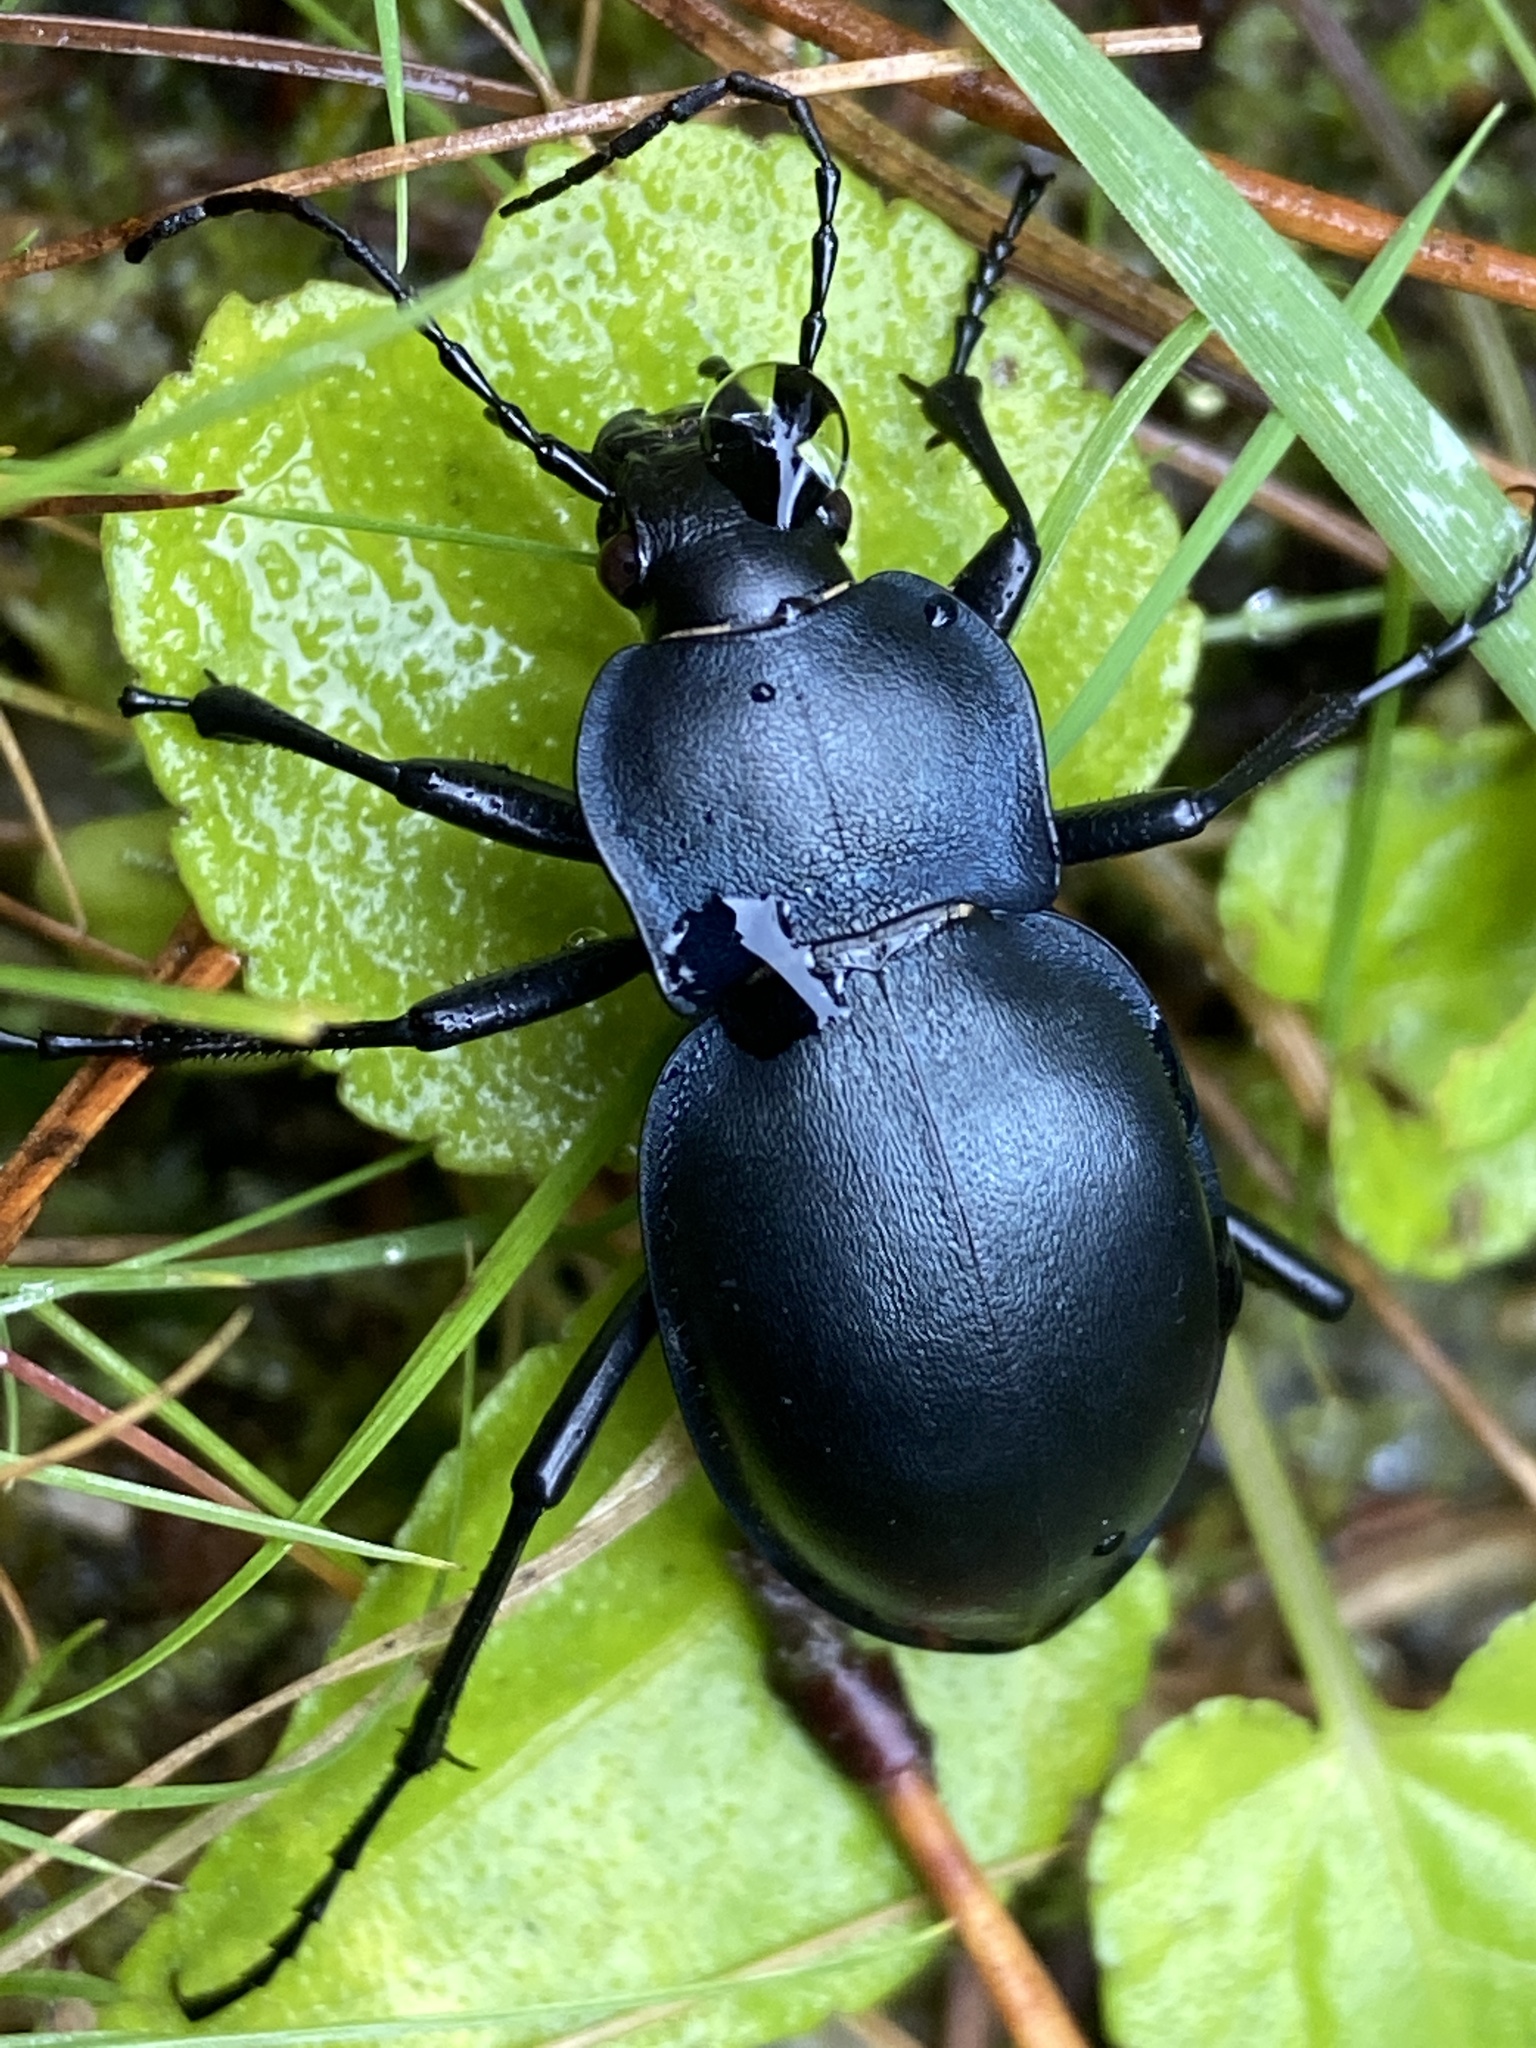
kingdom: Animalia
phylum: Arthropoda
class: Insecta
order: Coleoptera
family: Carabidae
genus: Carabus
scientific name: Carabus glabratus
